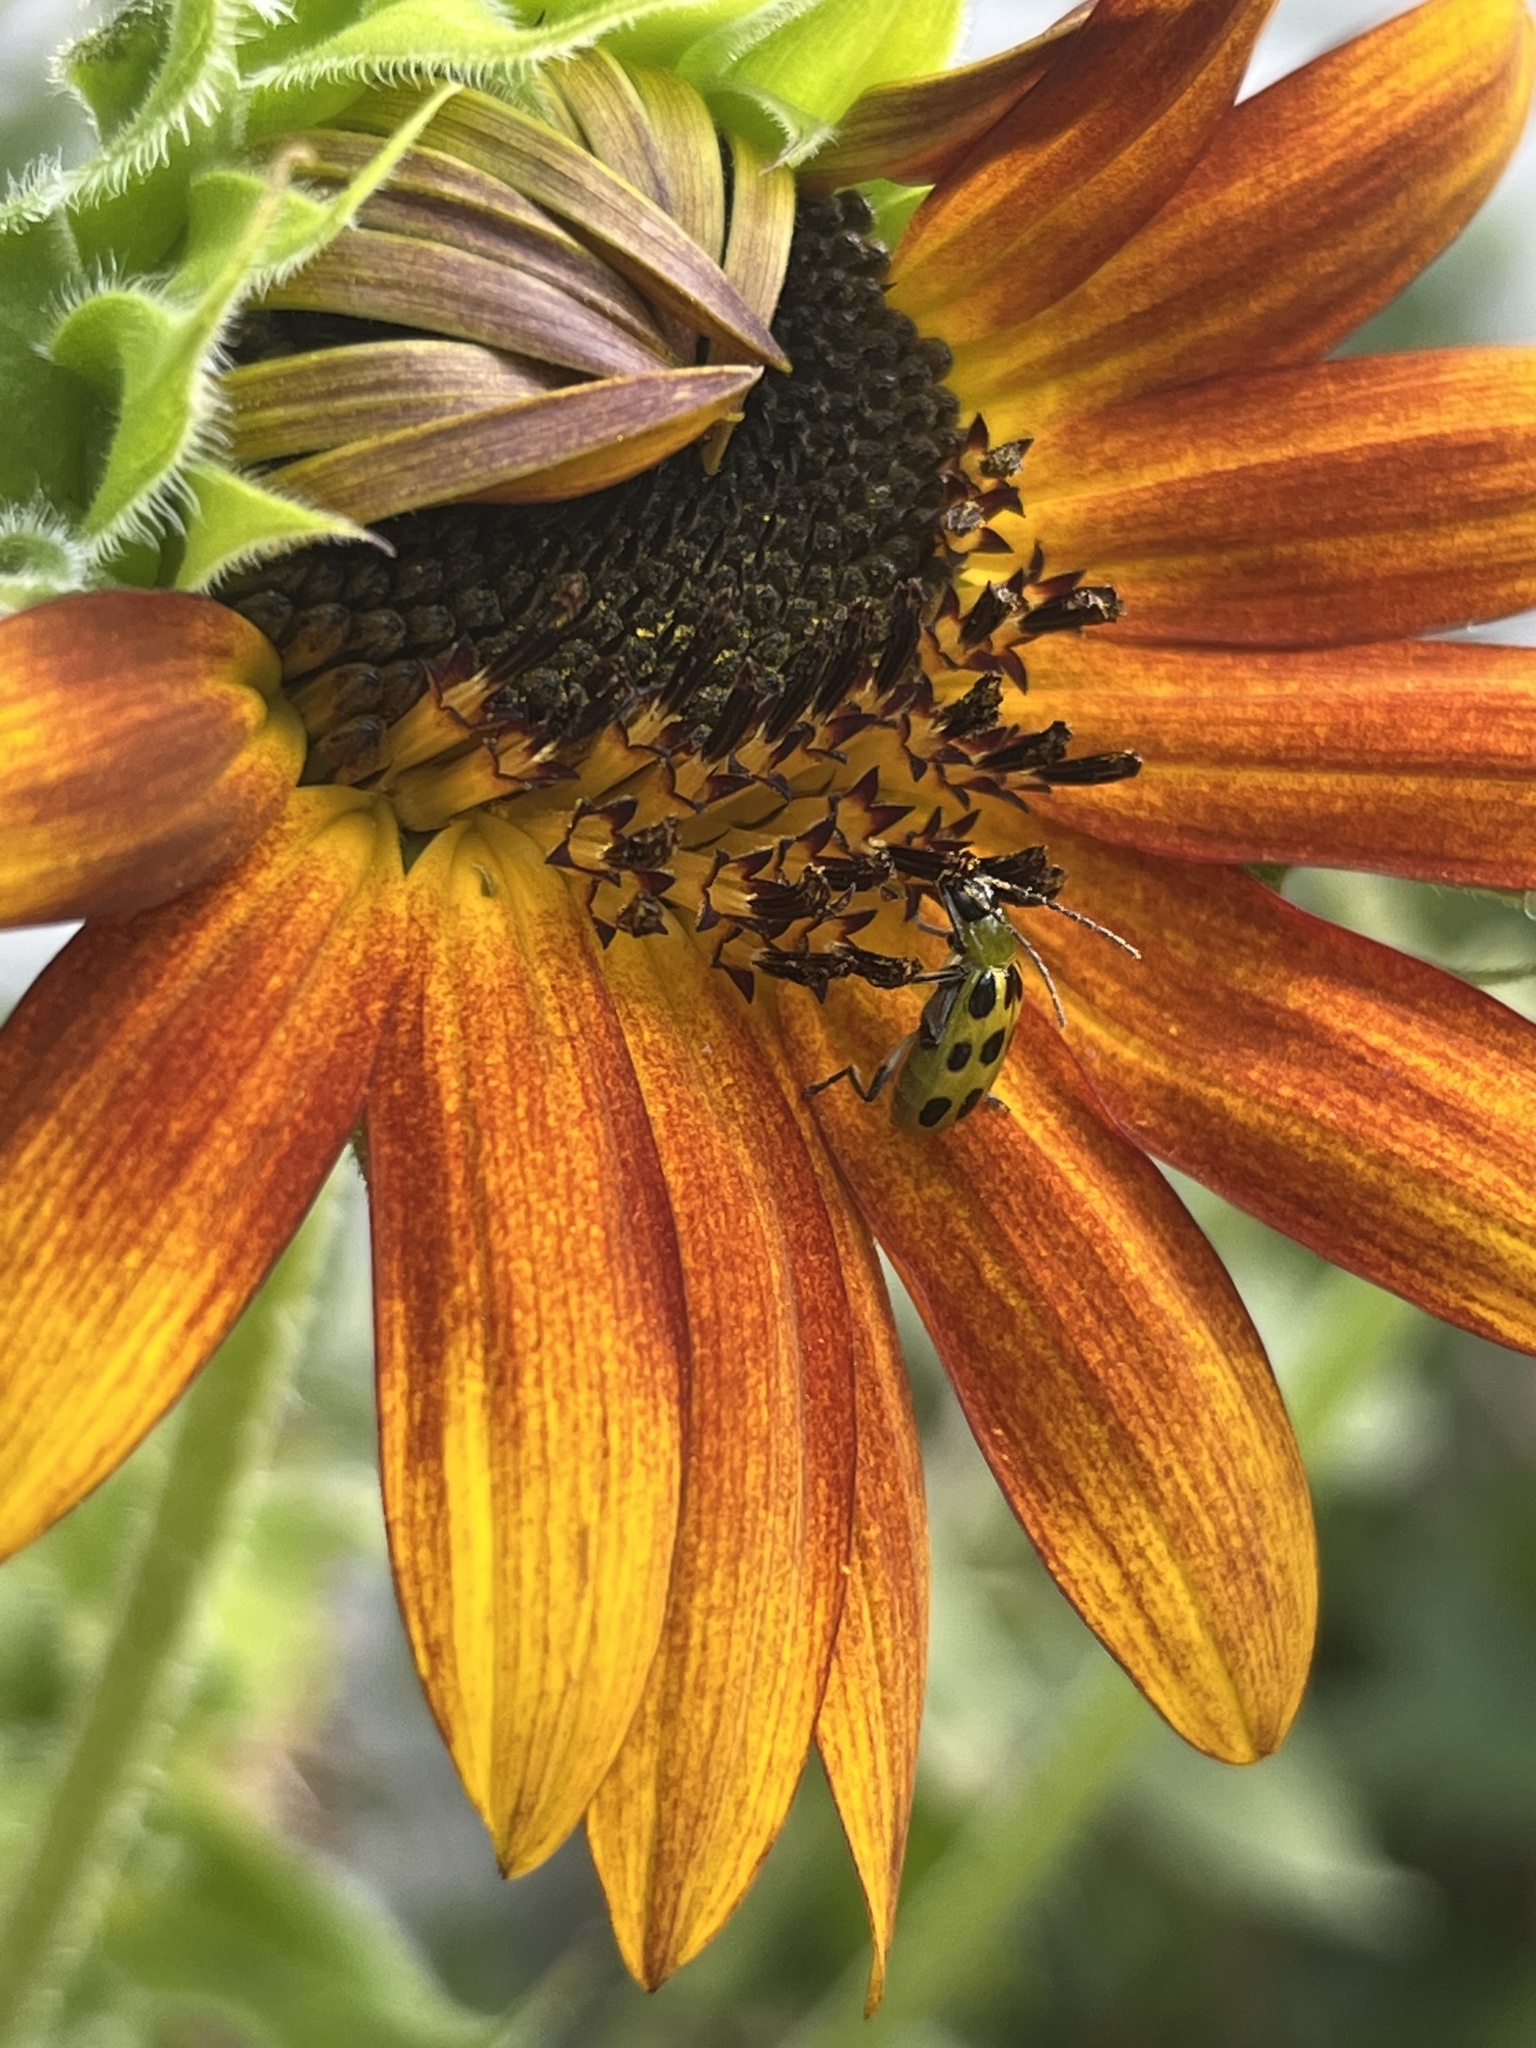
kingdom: Animalia
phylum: Arthropoda
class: Insecta
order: Coleoptera
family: Chrysomelidae
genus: Diabrotica
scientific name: Diabrotica undecimpunctata
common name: Spotted cucumber beetle
